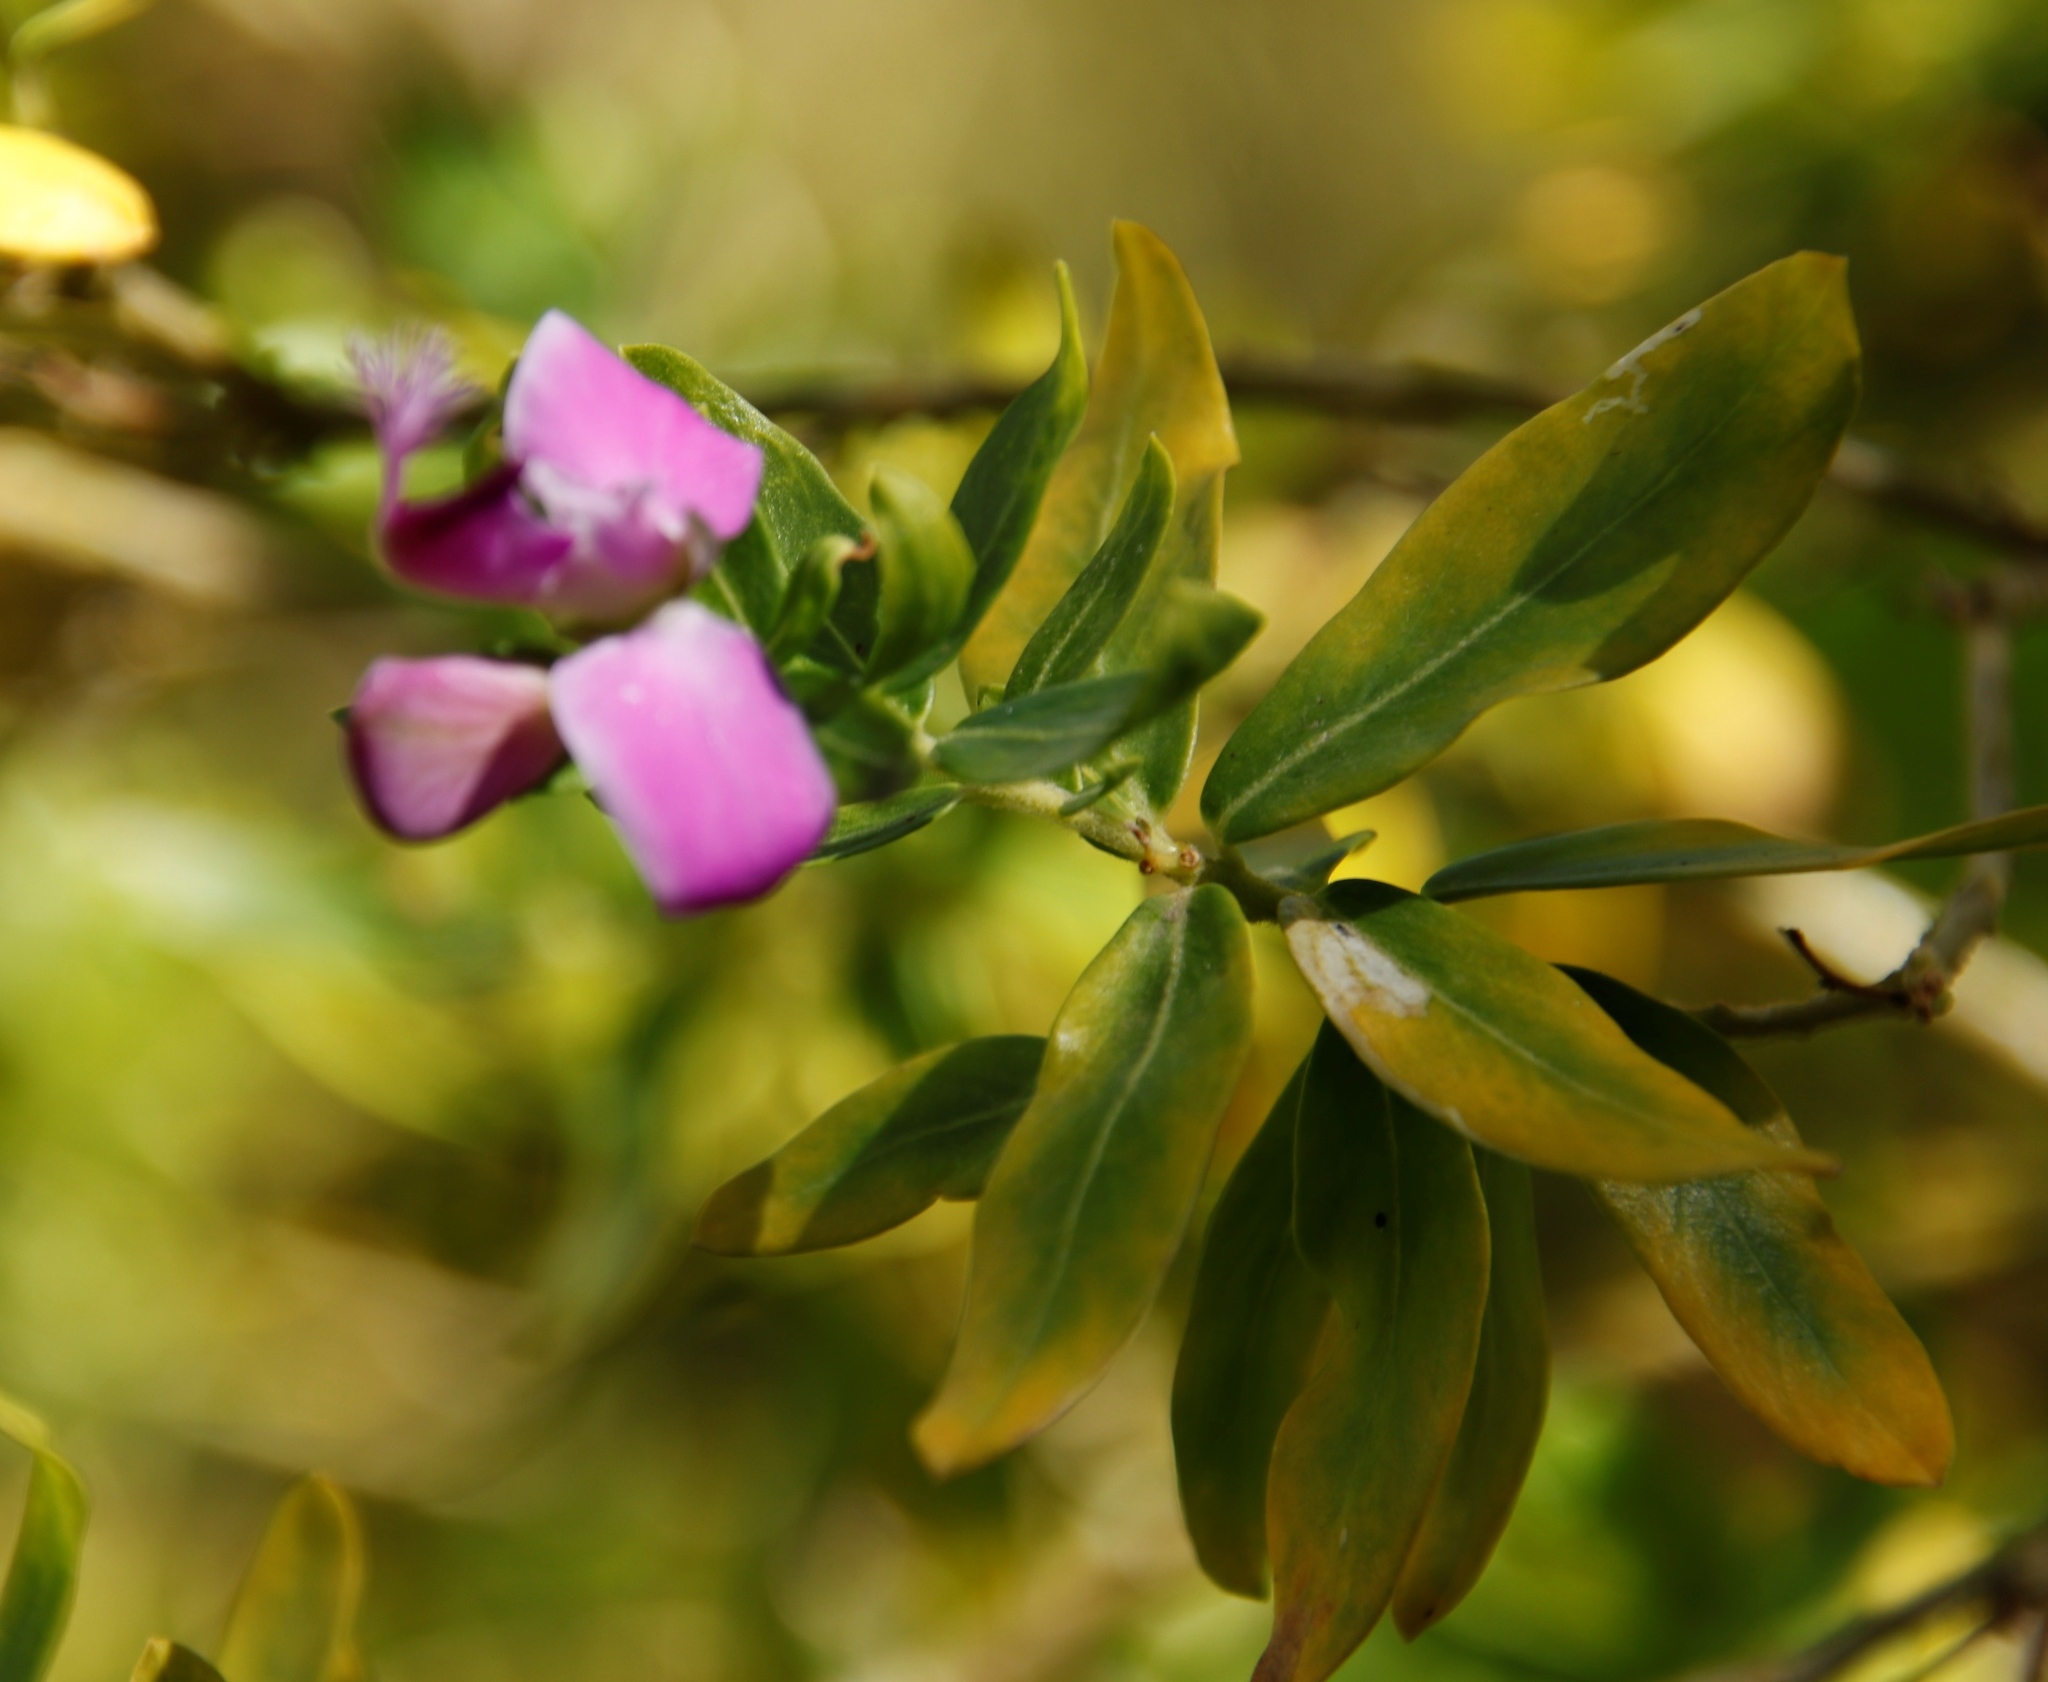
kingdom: Plantae
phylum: Tracheophyta
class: Magnoliopsida
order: Fabales
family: Polygalaceae
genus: Polygala
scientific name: Polygala myrtifolia
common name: Myrtle-leaf milkwort
